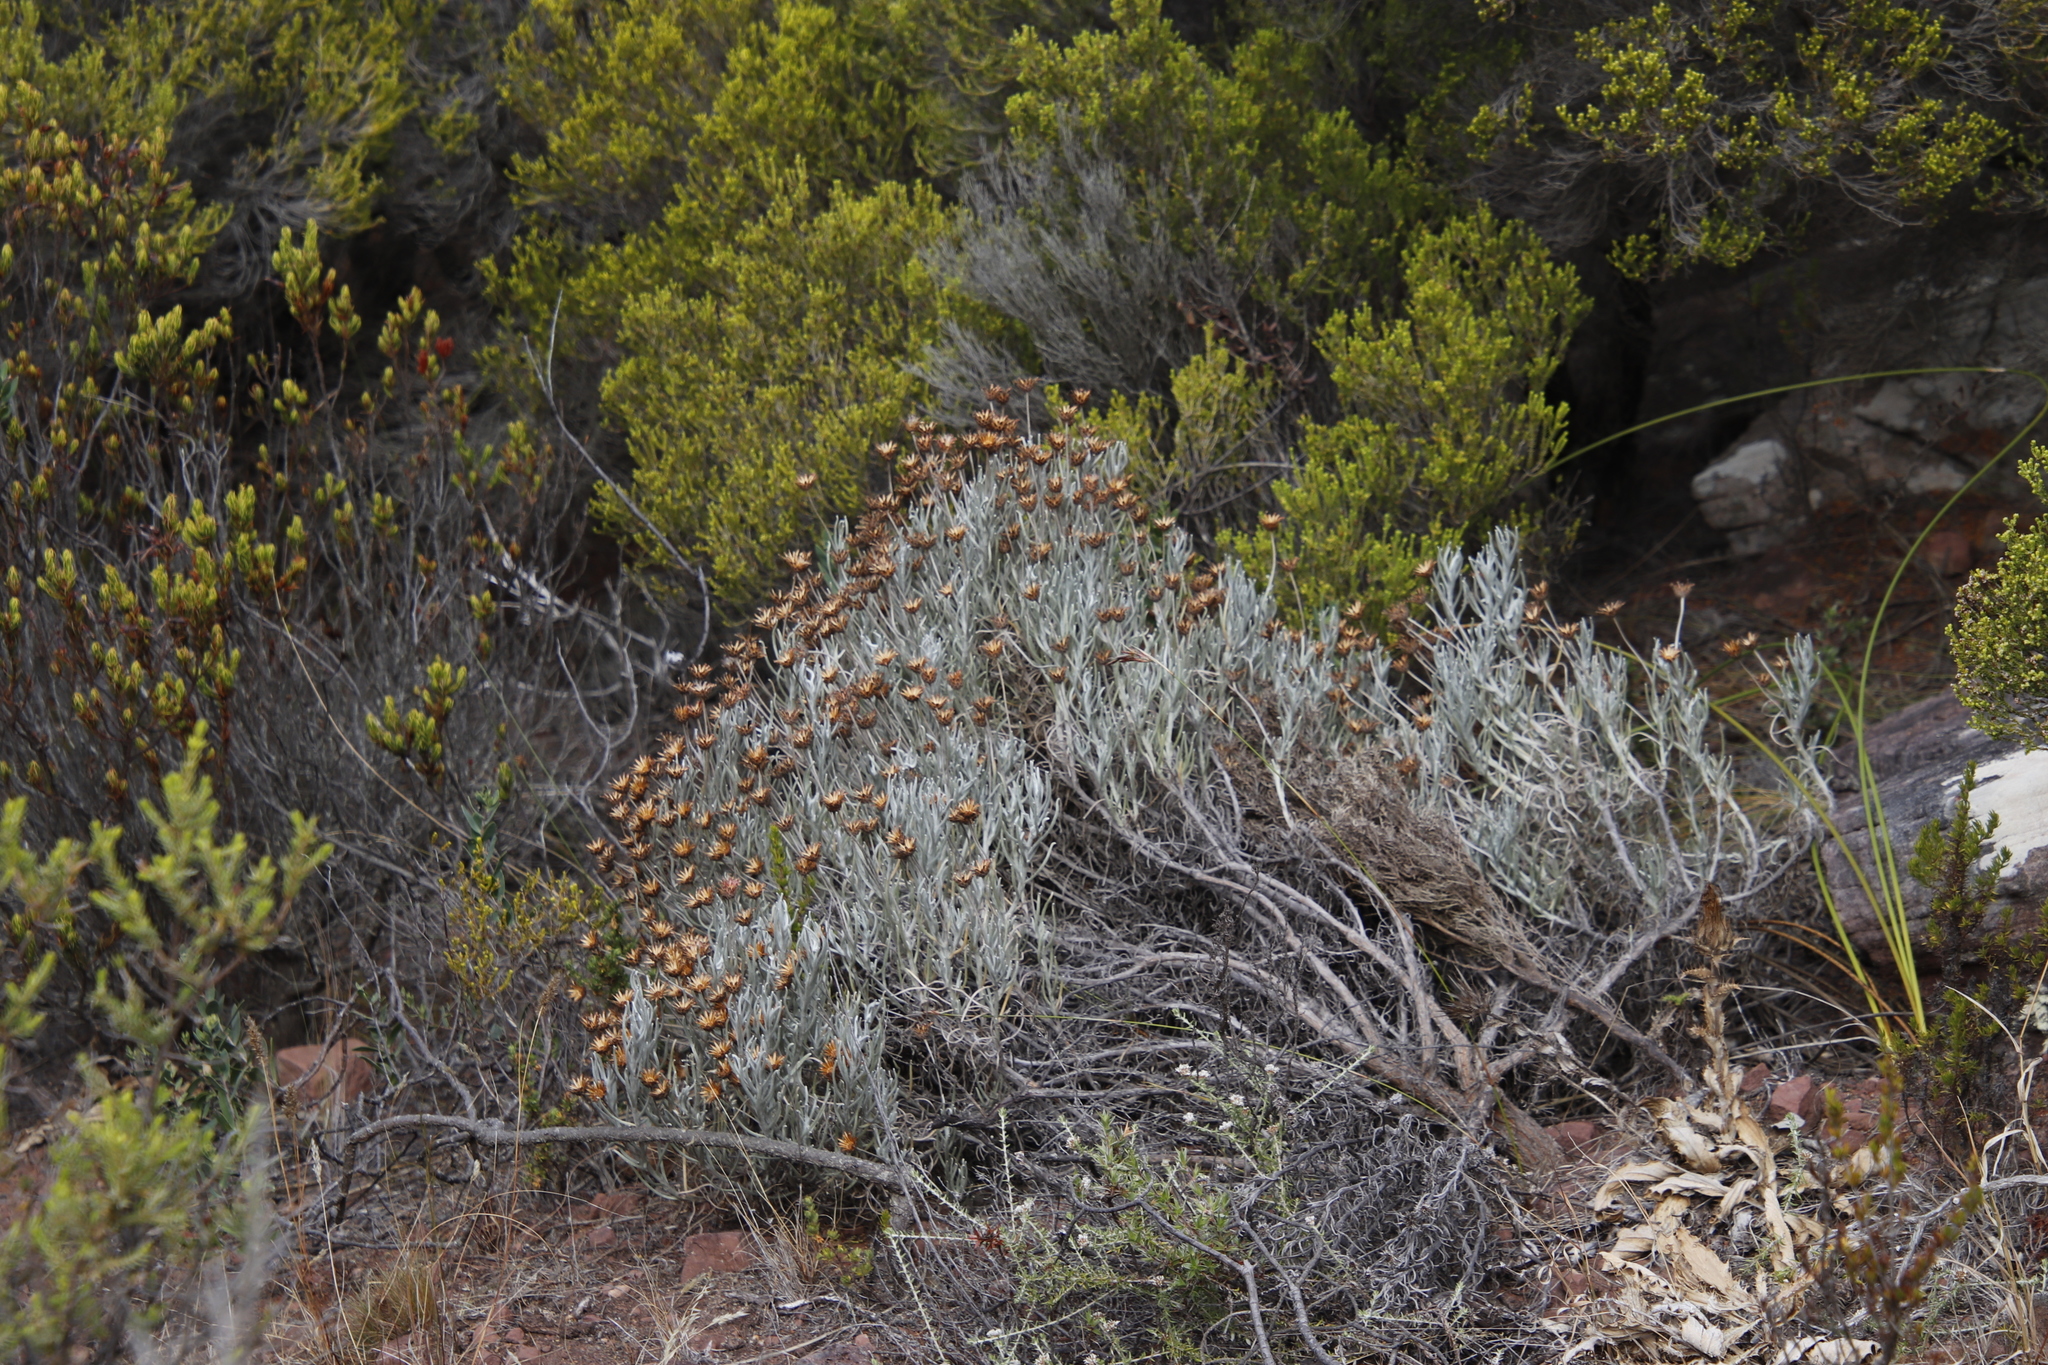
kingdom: Plantae
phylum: Tracheophyta
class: Magnoliopsida
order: Asterales
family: Asteraceae
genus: Syncarpha
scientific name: Syncarpha gnaphaloides
